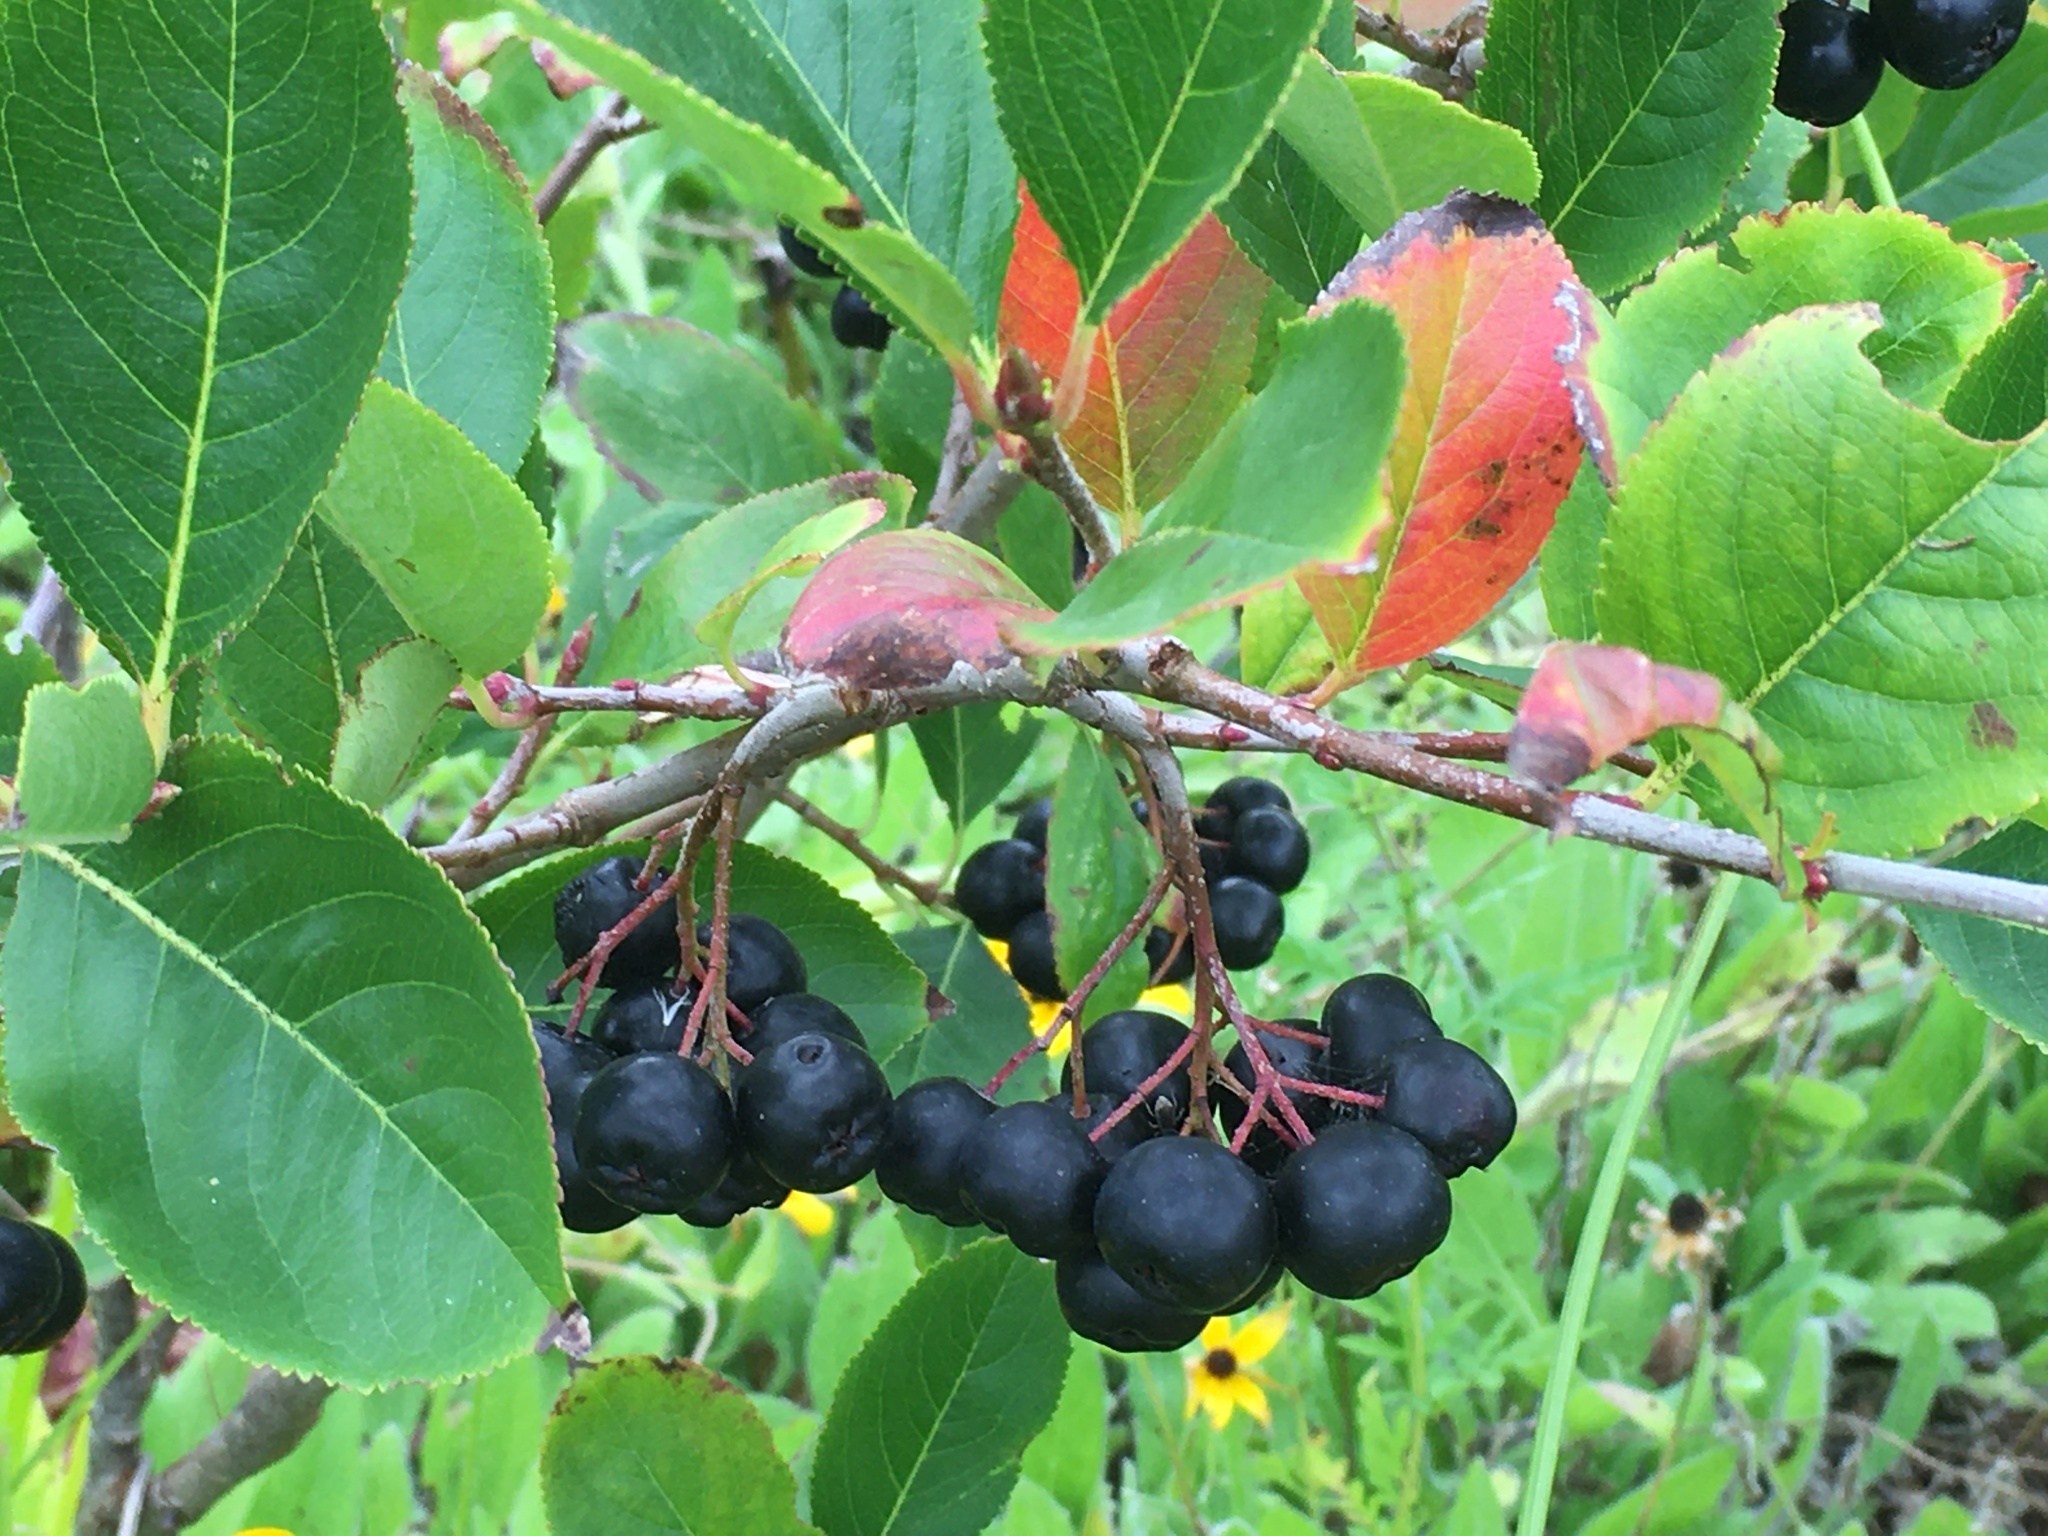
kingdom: Plantae
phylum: Tracheophyta
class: Magnoliopsida
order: Rosales
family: Rosaceae
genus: Aronia
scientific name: Aronia melanocarpa
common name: Black chokeberry
